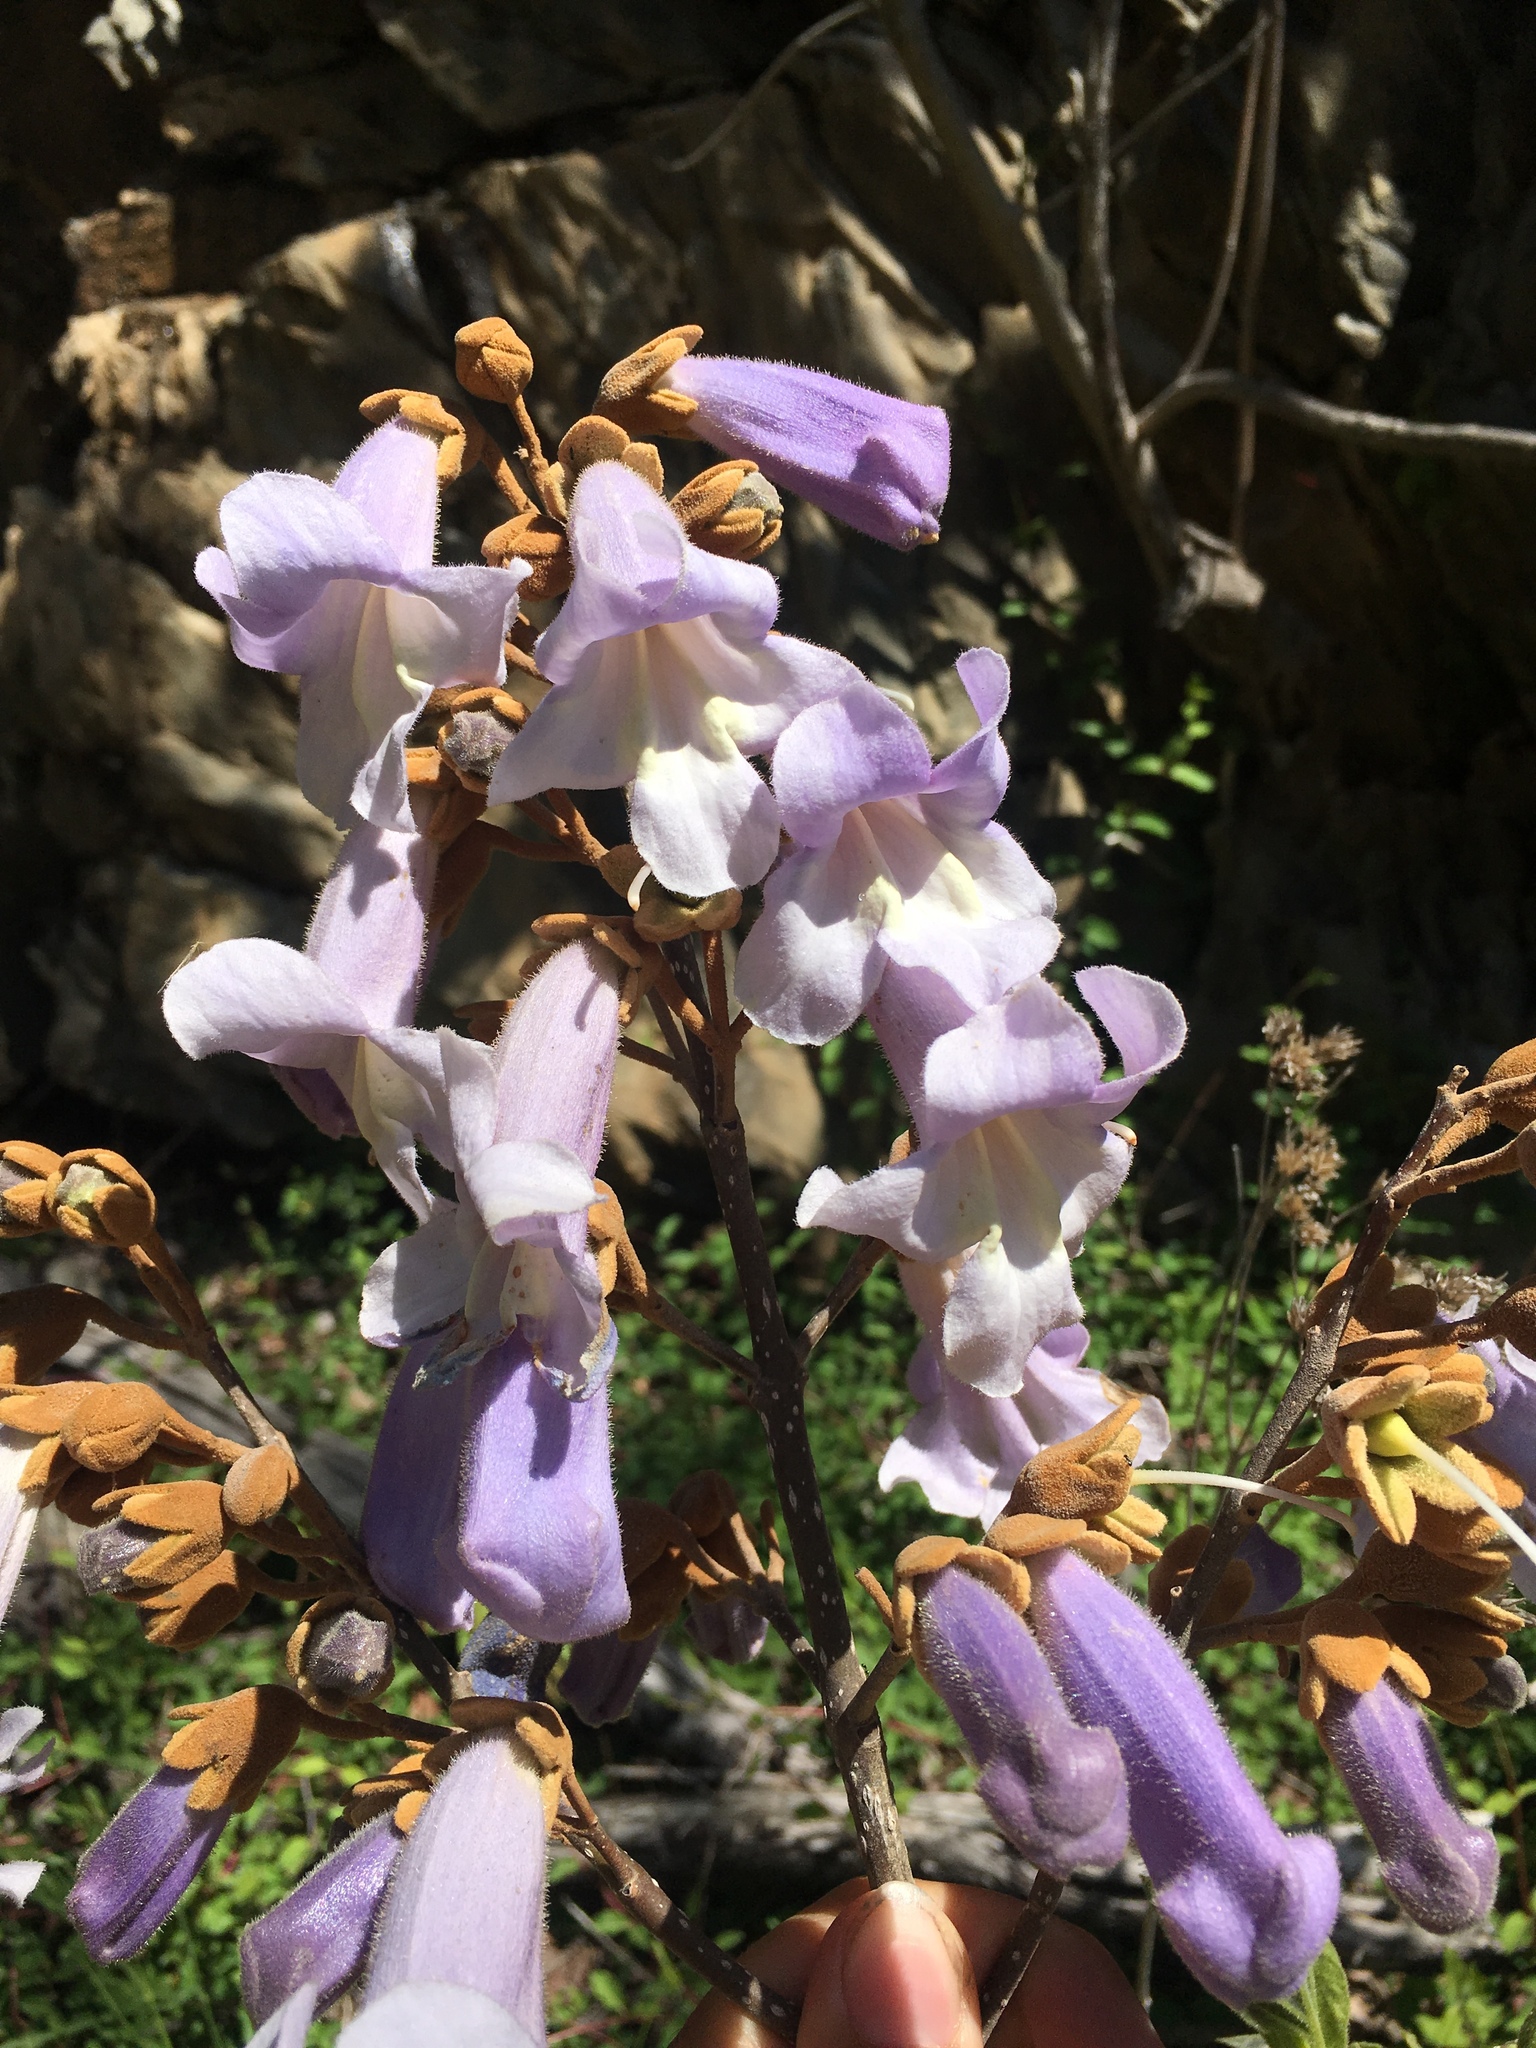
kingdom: Plantae
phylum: Tracheophyta
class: Magnoliopsida
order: Lamiales
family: Paulowniaceae
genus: Paulownia
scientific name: Paulownia tomentosa
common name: Foxglove-tree
